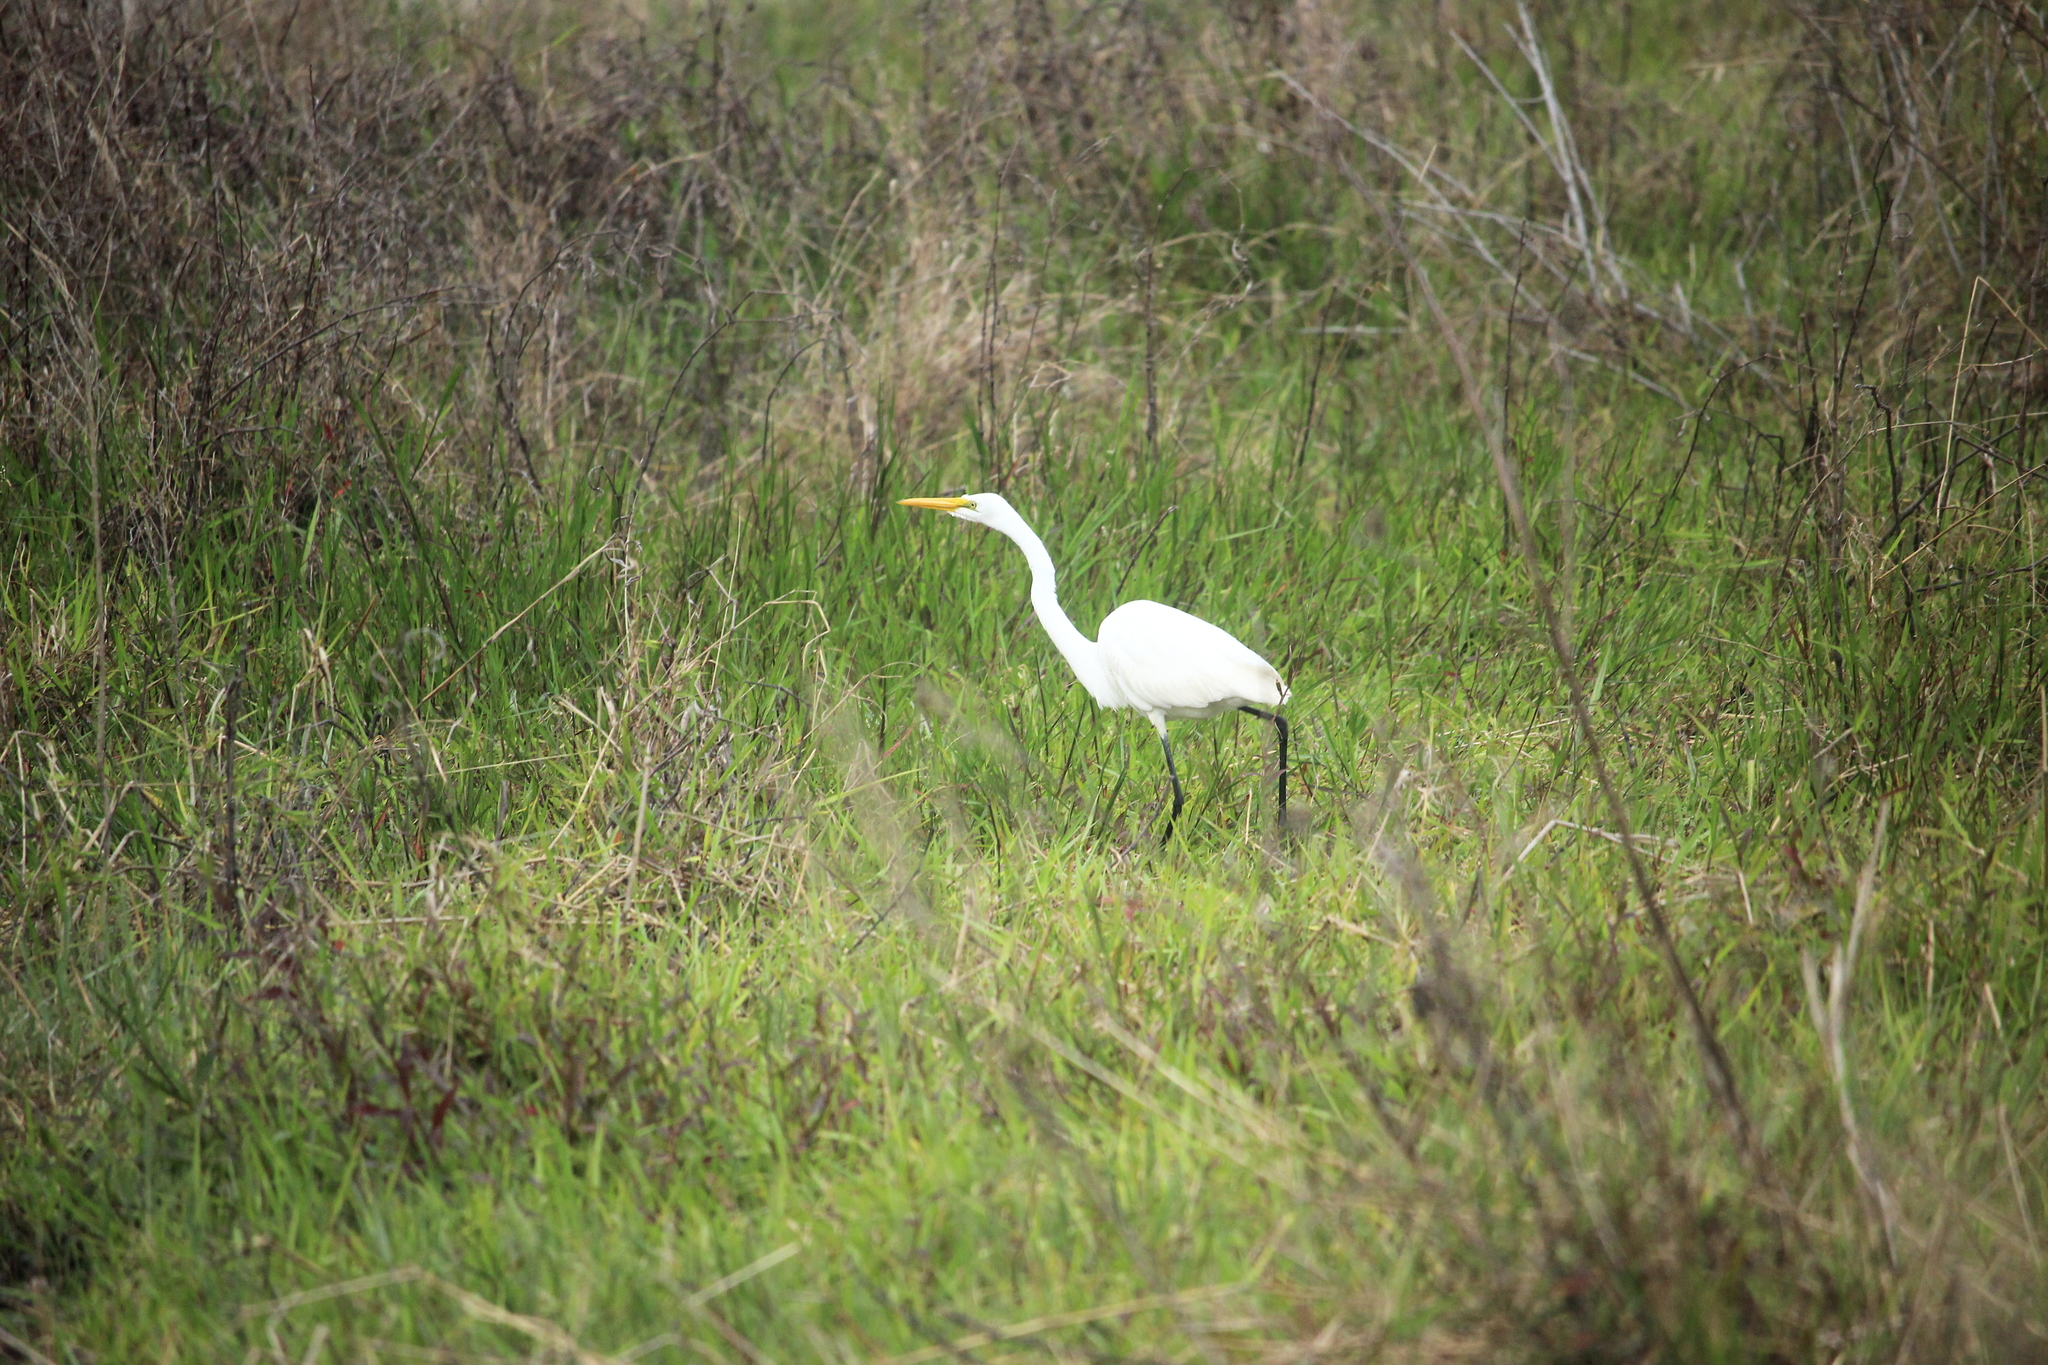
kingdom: Animalia
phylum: Chordata
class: Aves
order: Pelecaniformes
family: Ardeidae
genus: Ardea
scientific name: Ardea alba
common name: Great egret
